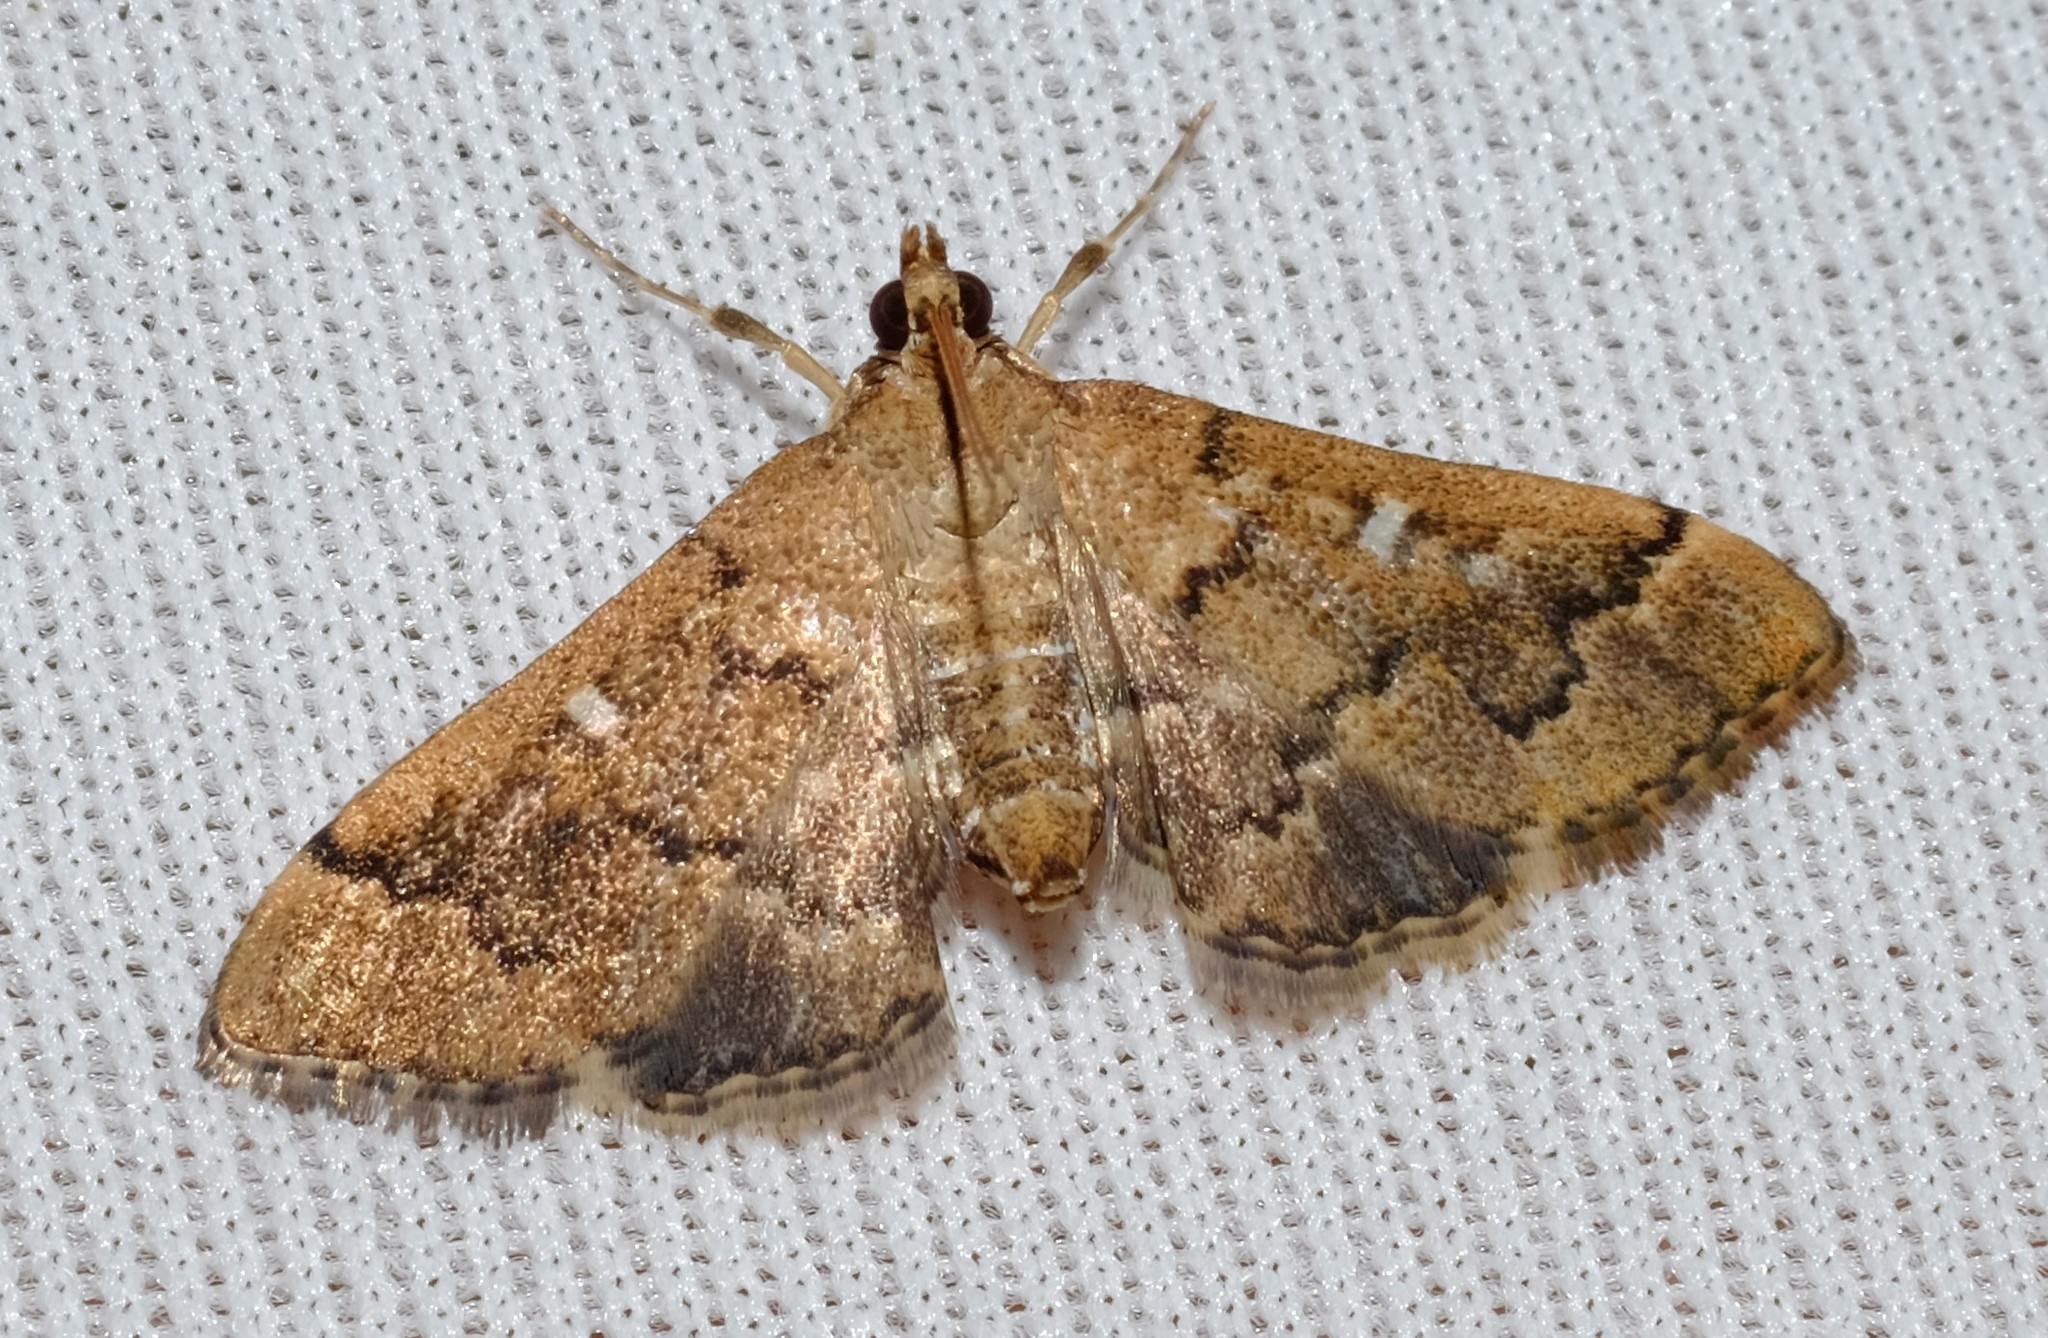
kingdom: Animalia
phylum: Arthropoda
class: Insecta
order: Lepidoptera
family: Crambidae
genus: Nacoleia
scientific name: Nacoleia rhoeoalis
